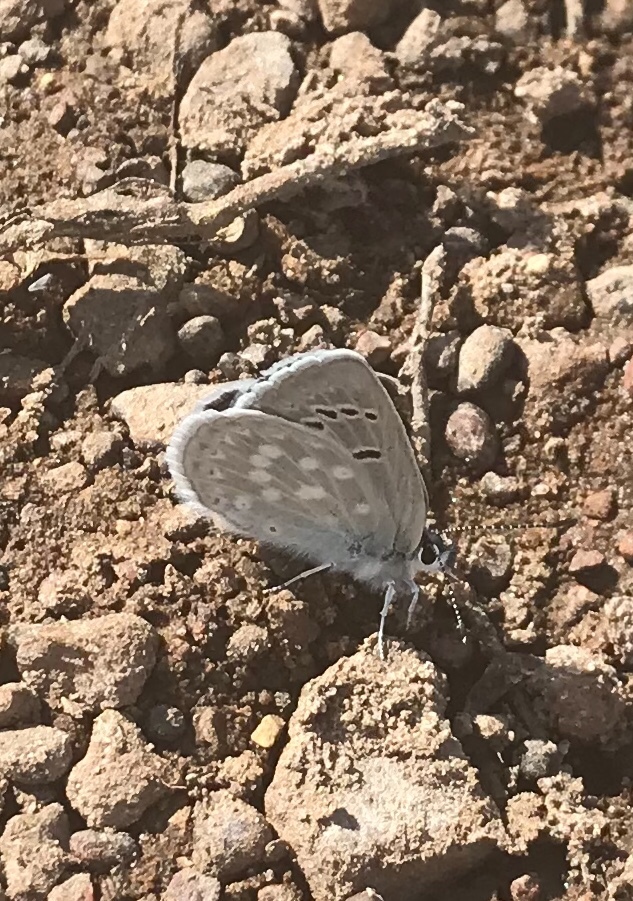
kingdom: Animalia
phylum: Arthropoda
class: Insecta
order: Lepidoptera
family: Lycaenidae
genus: Icaricia
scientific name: Icaricia icarioides
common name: Boisduval's blue
